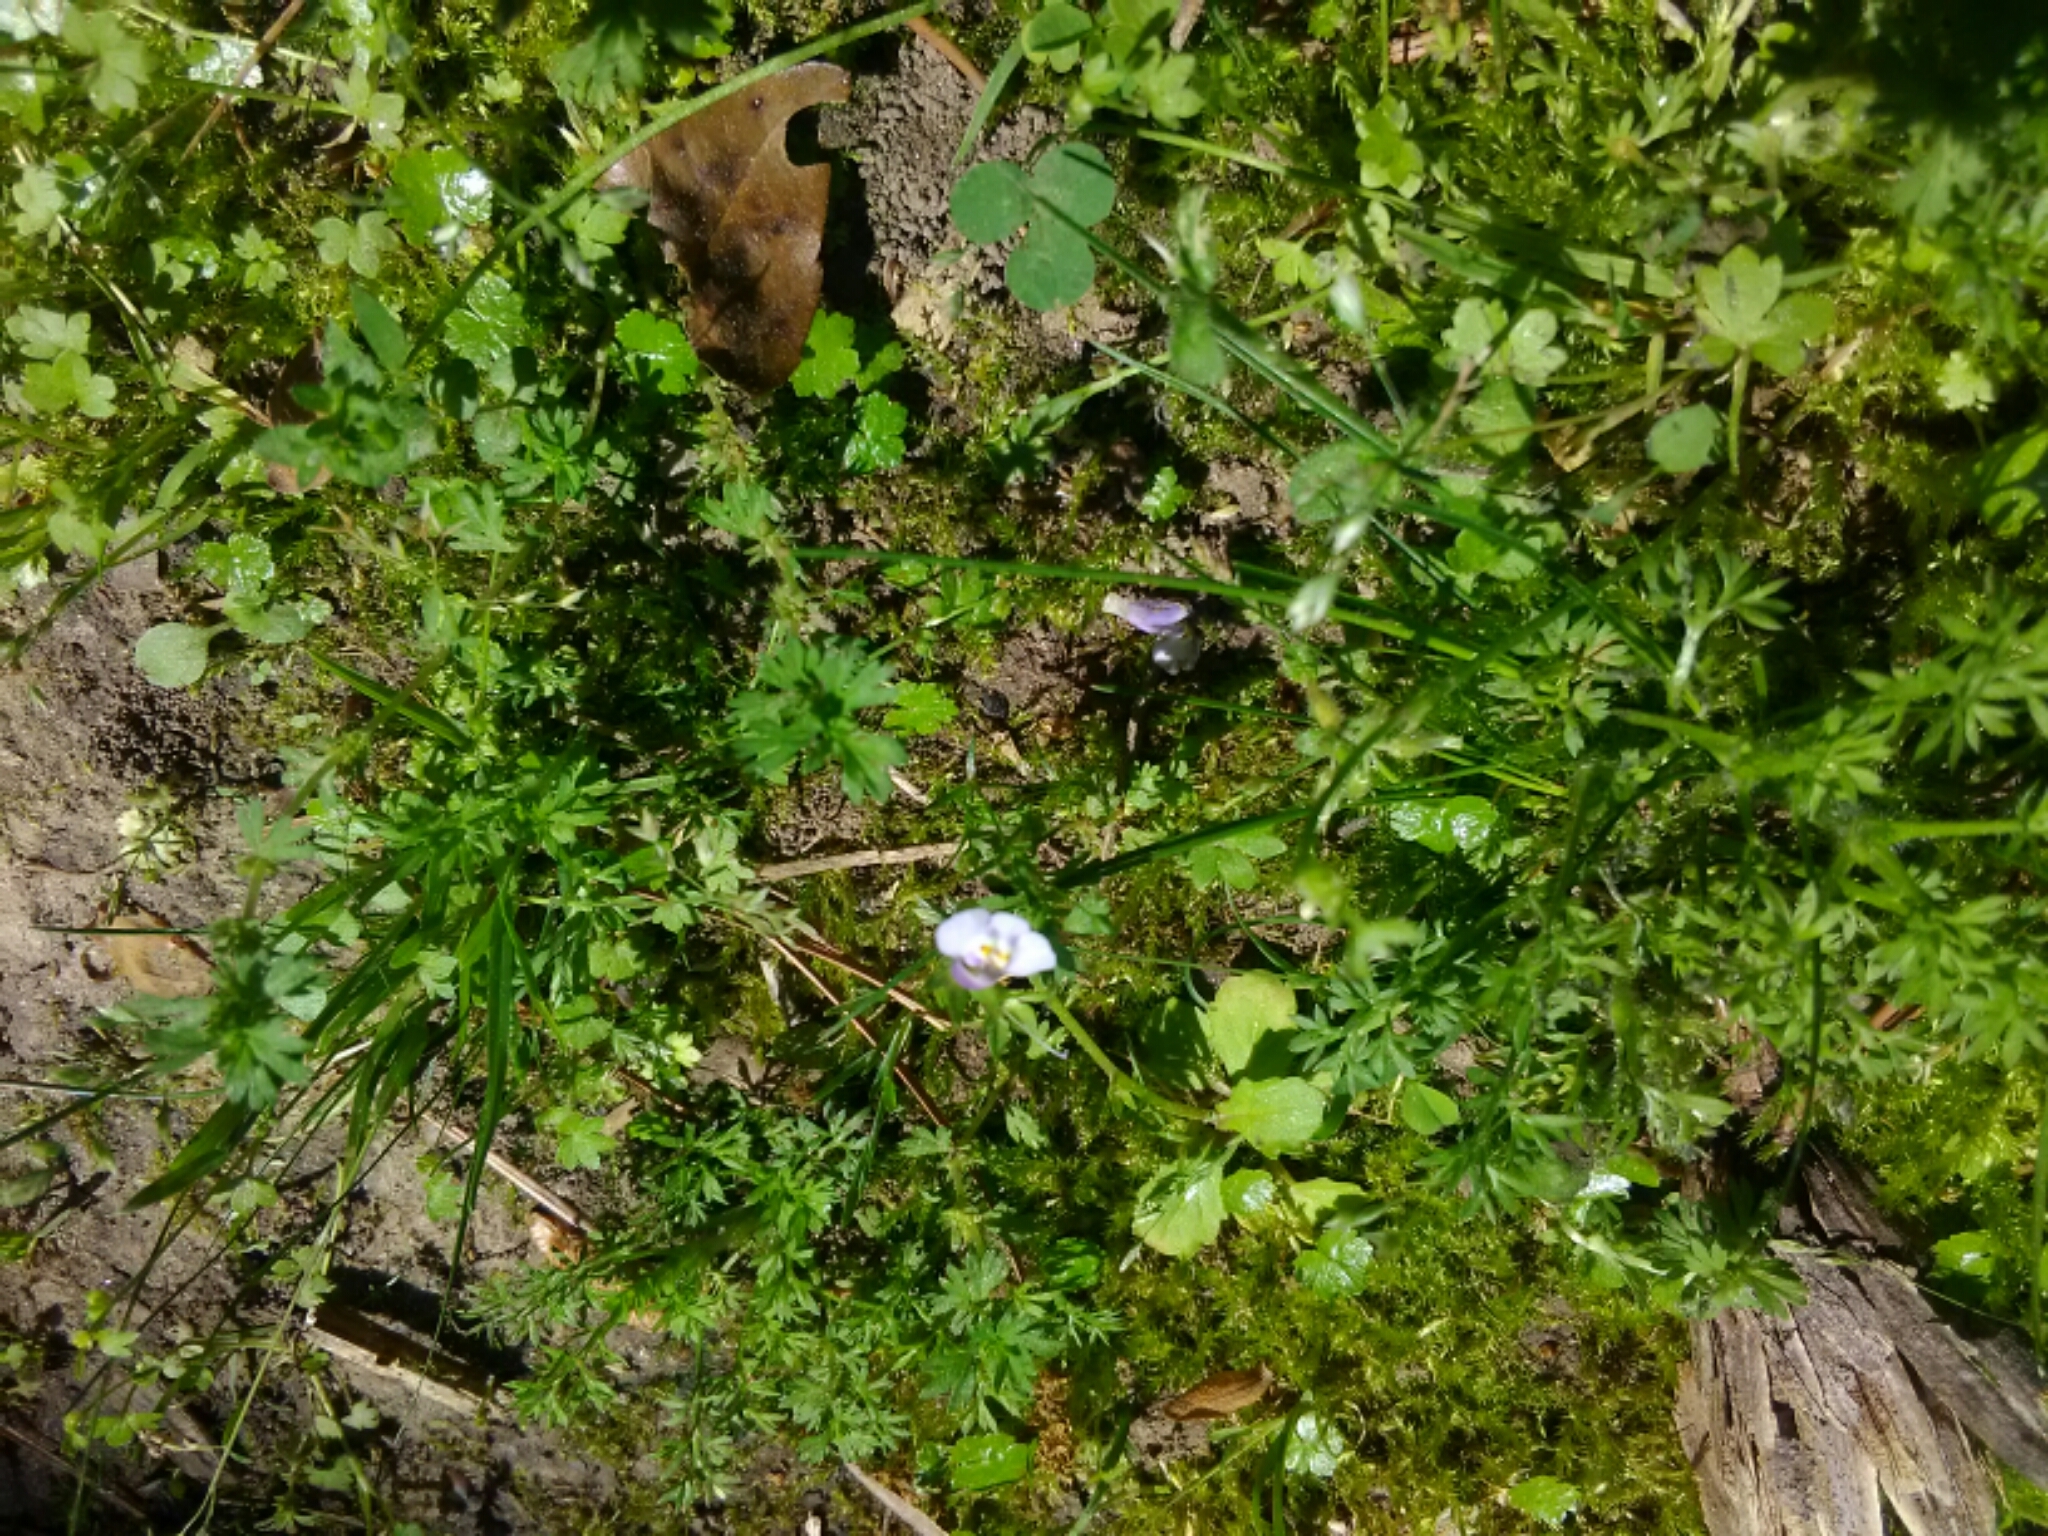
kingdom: Plantae
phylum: Tracheophyta
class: Magnoliopsida
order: Lamiales
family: Mazaceae
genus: Mazus
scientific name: Mazus pumilus
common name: Japanese mazus
